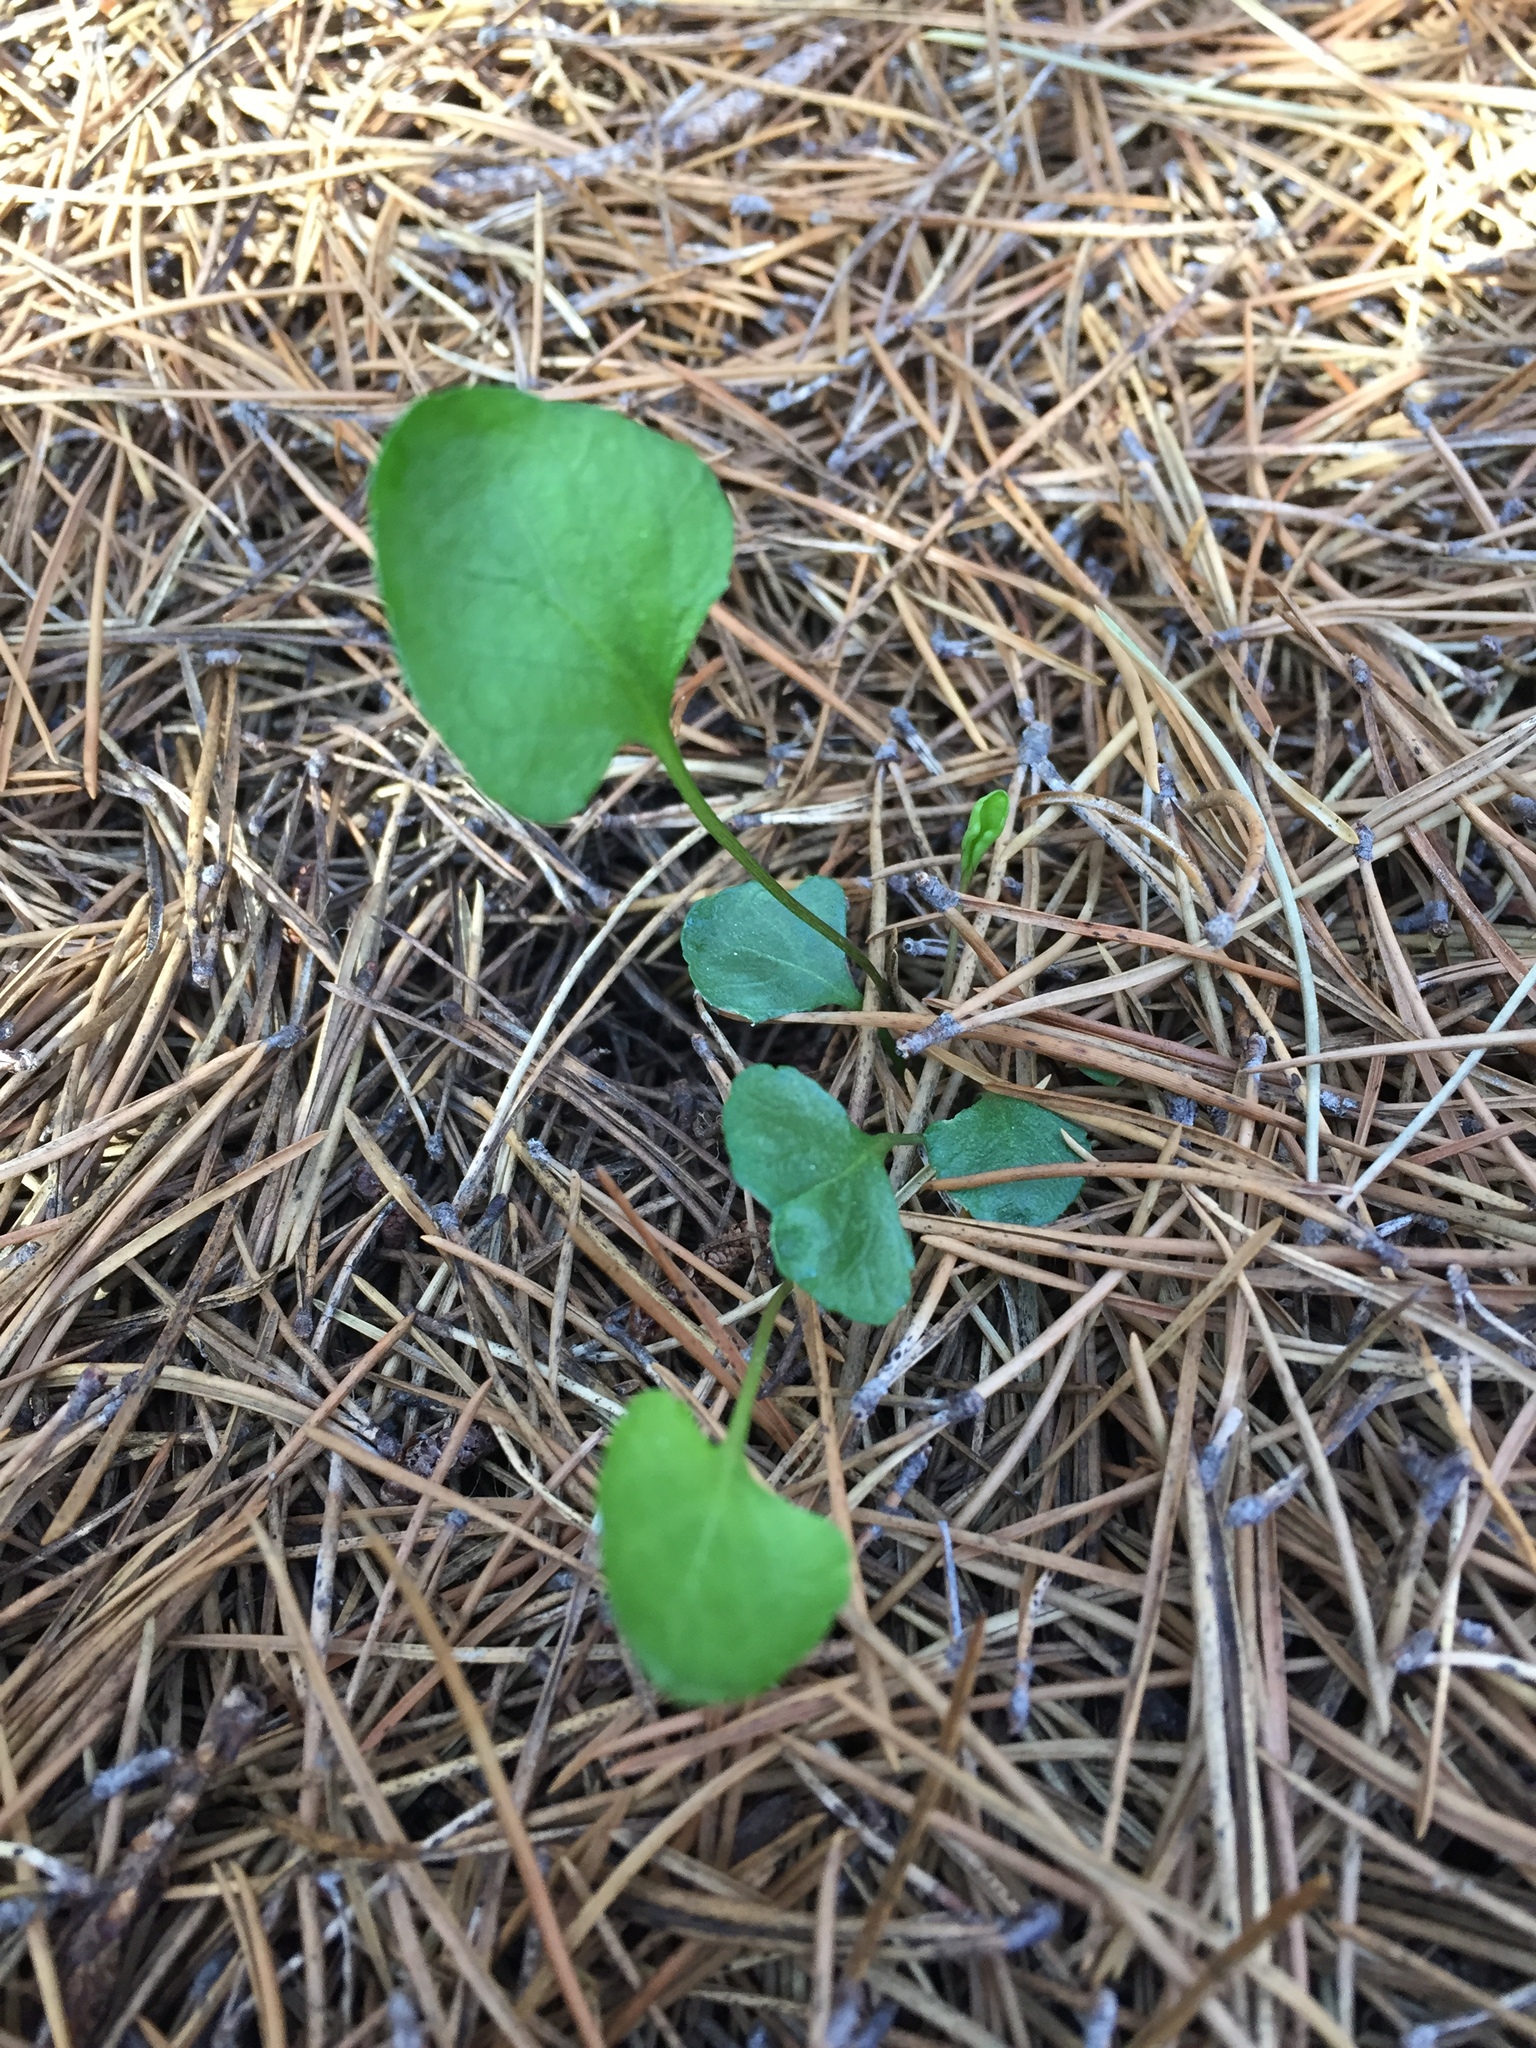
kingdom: Plantae
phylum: Tracheophyta
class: Magnoliopsida
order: Malpighiales
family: Violaceae
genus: Viola
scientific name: Viola cunninghamii
